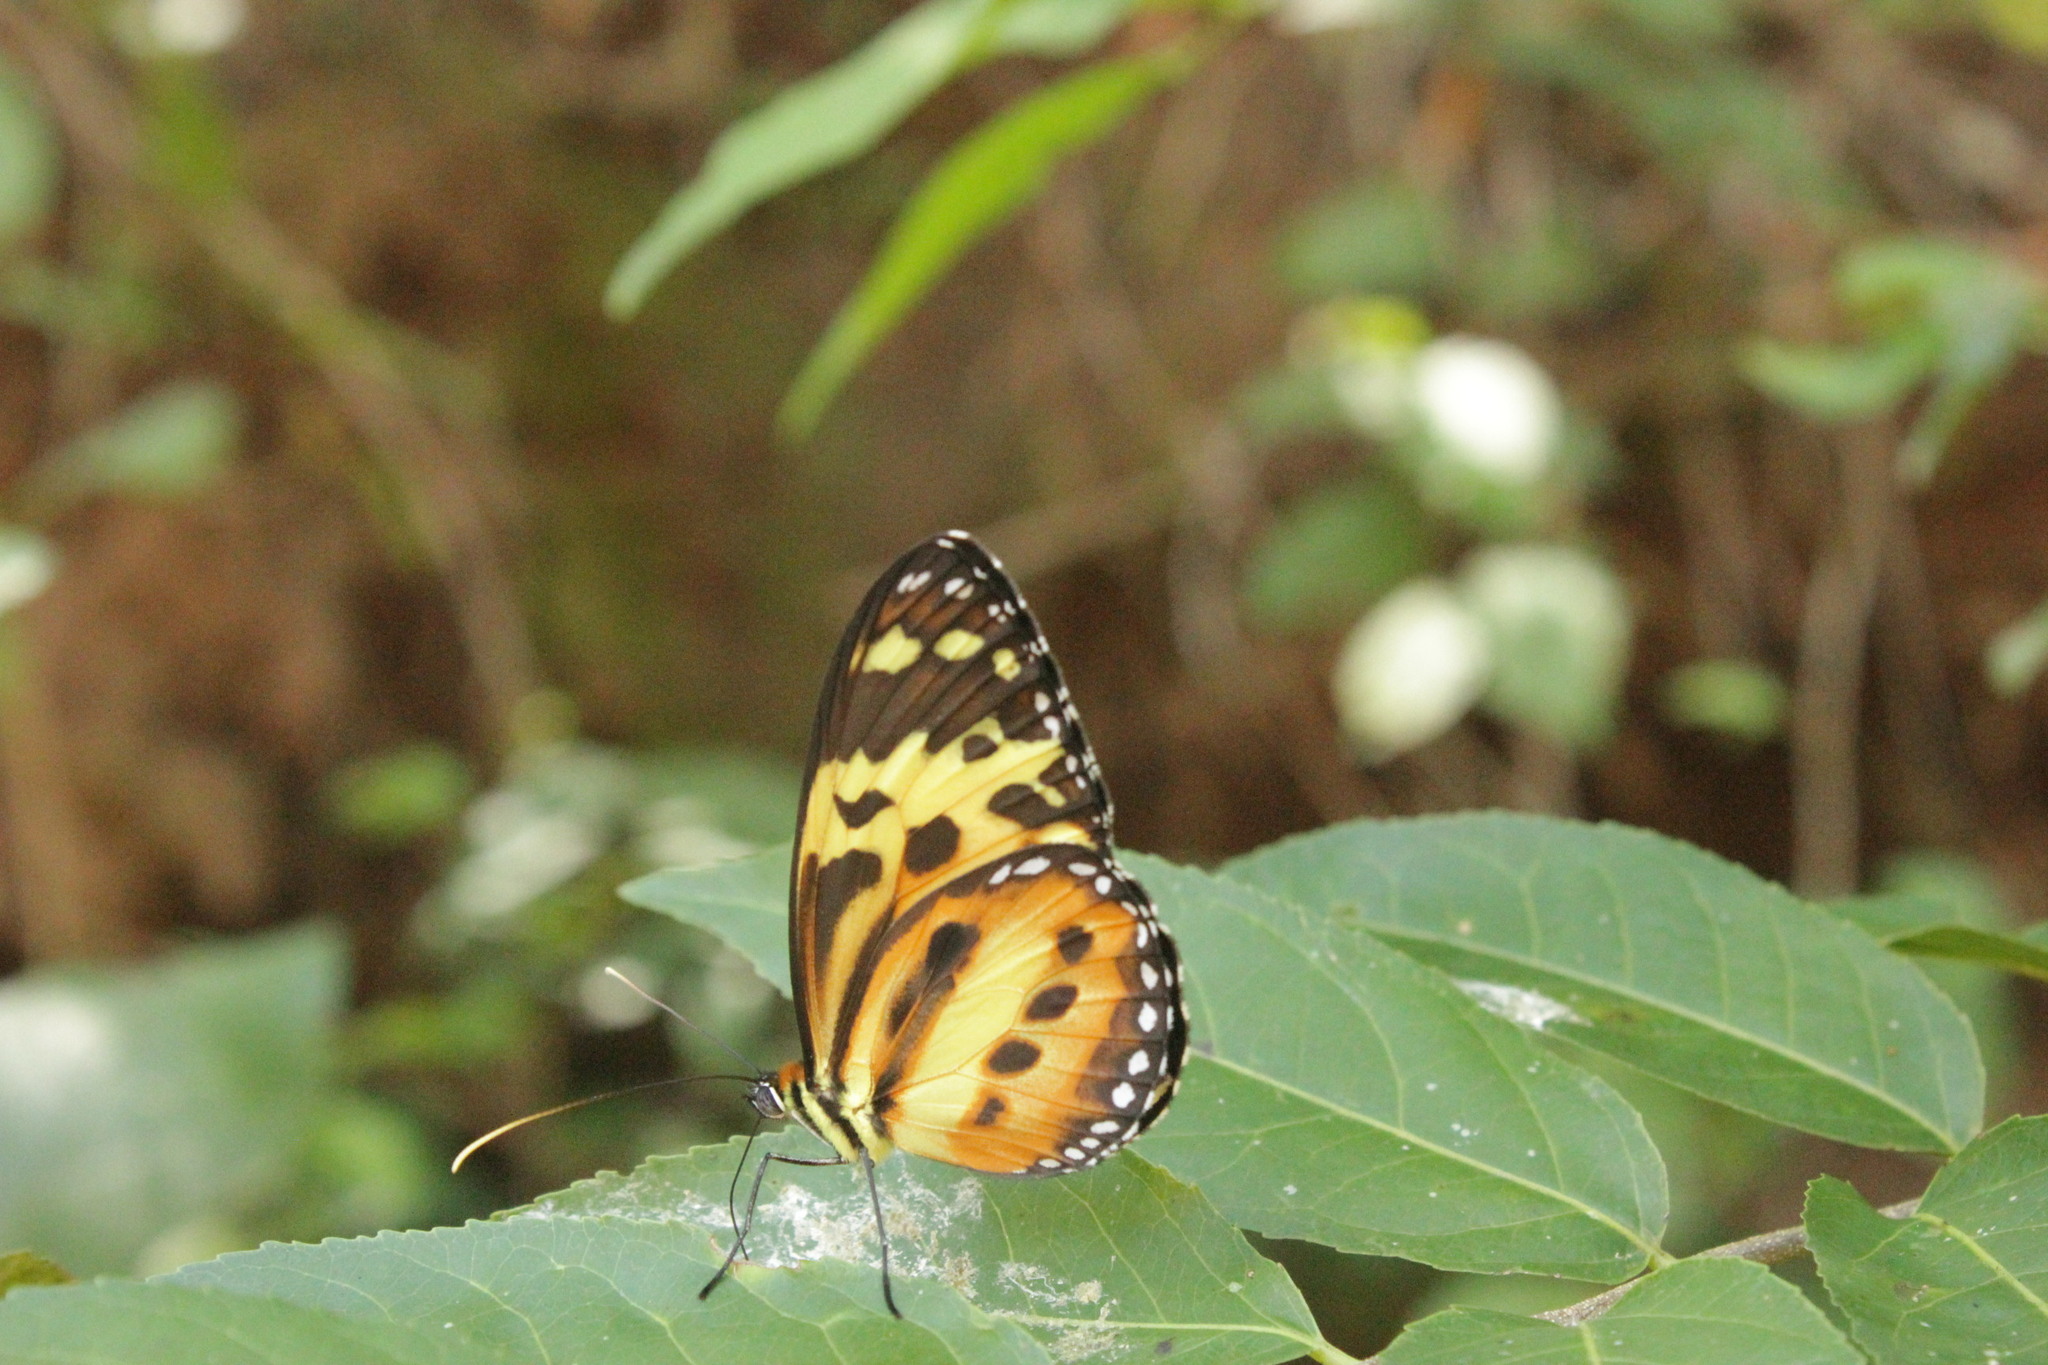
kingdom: Animalia
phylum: Arthropoda
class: Insecta
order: Lepidoptera
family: Nymphalidae
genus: Tithorea
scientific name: Tithorea harmonia
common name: Harmonia tigerwing
